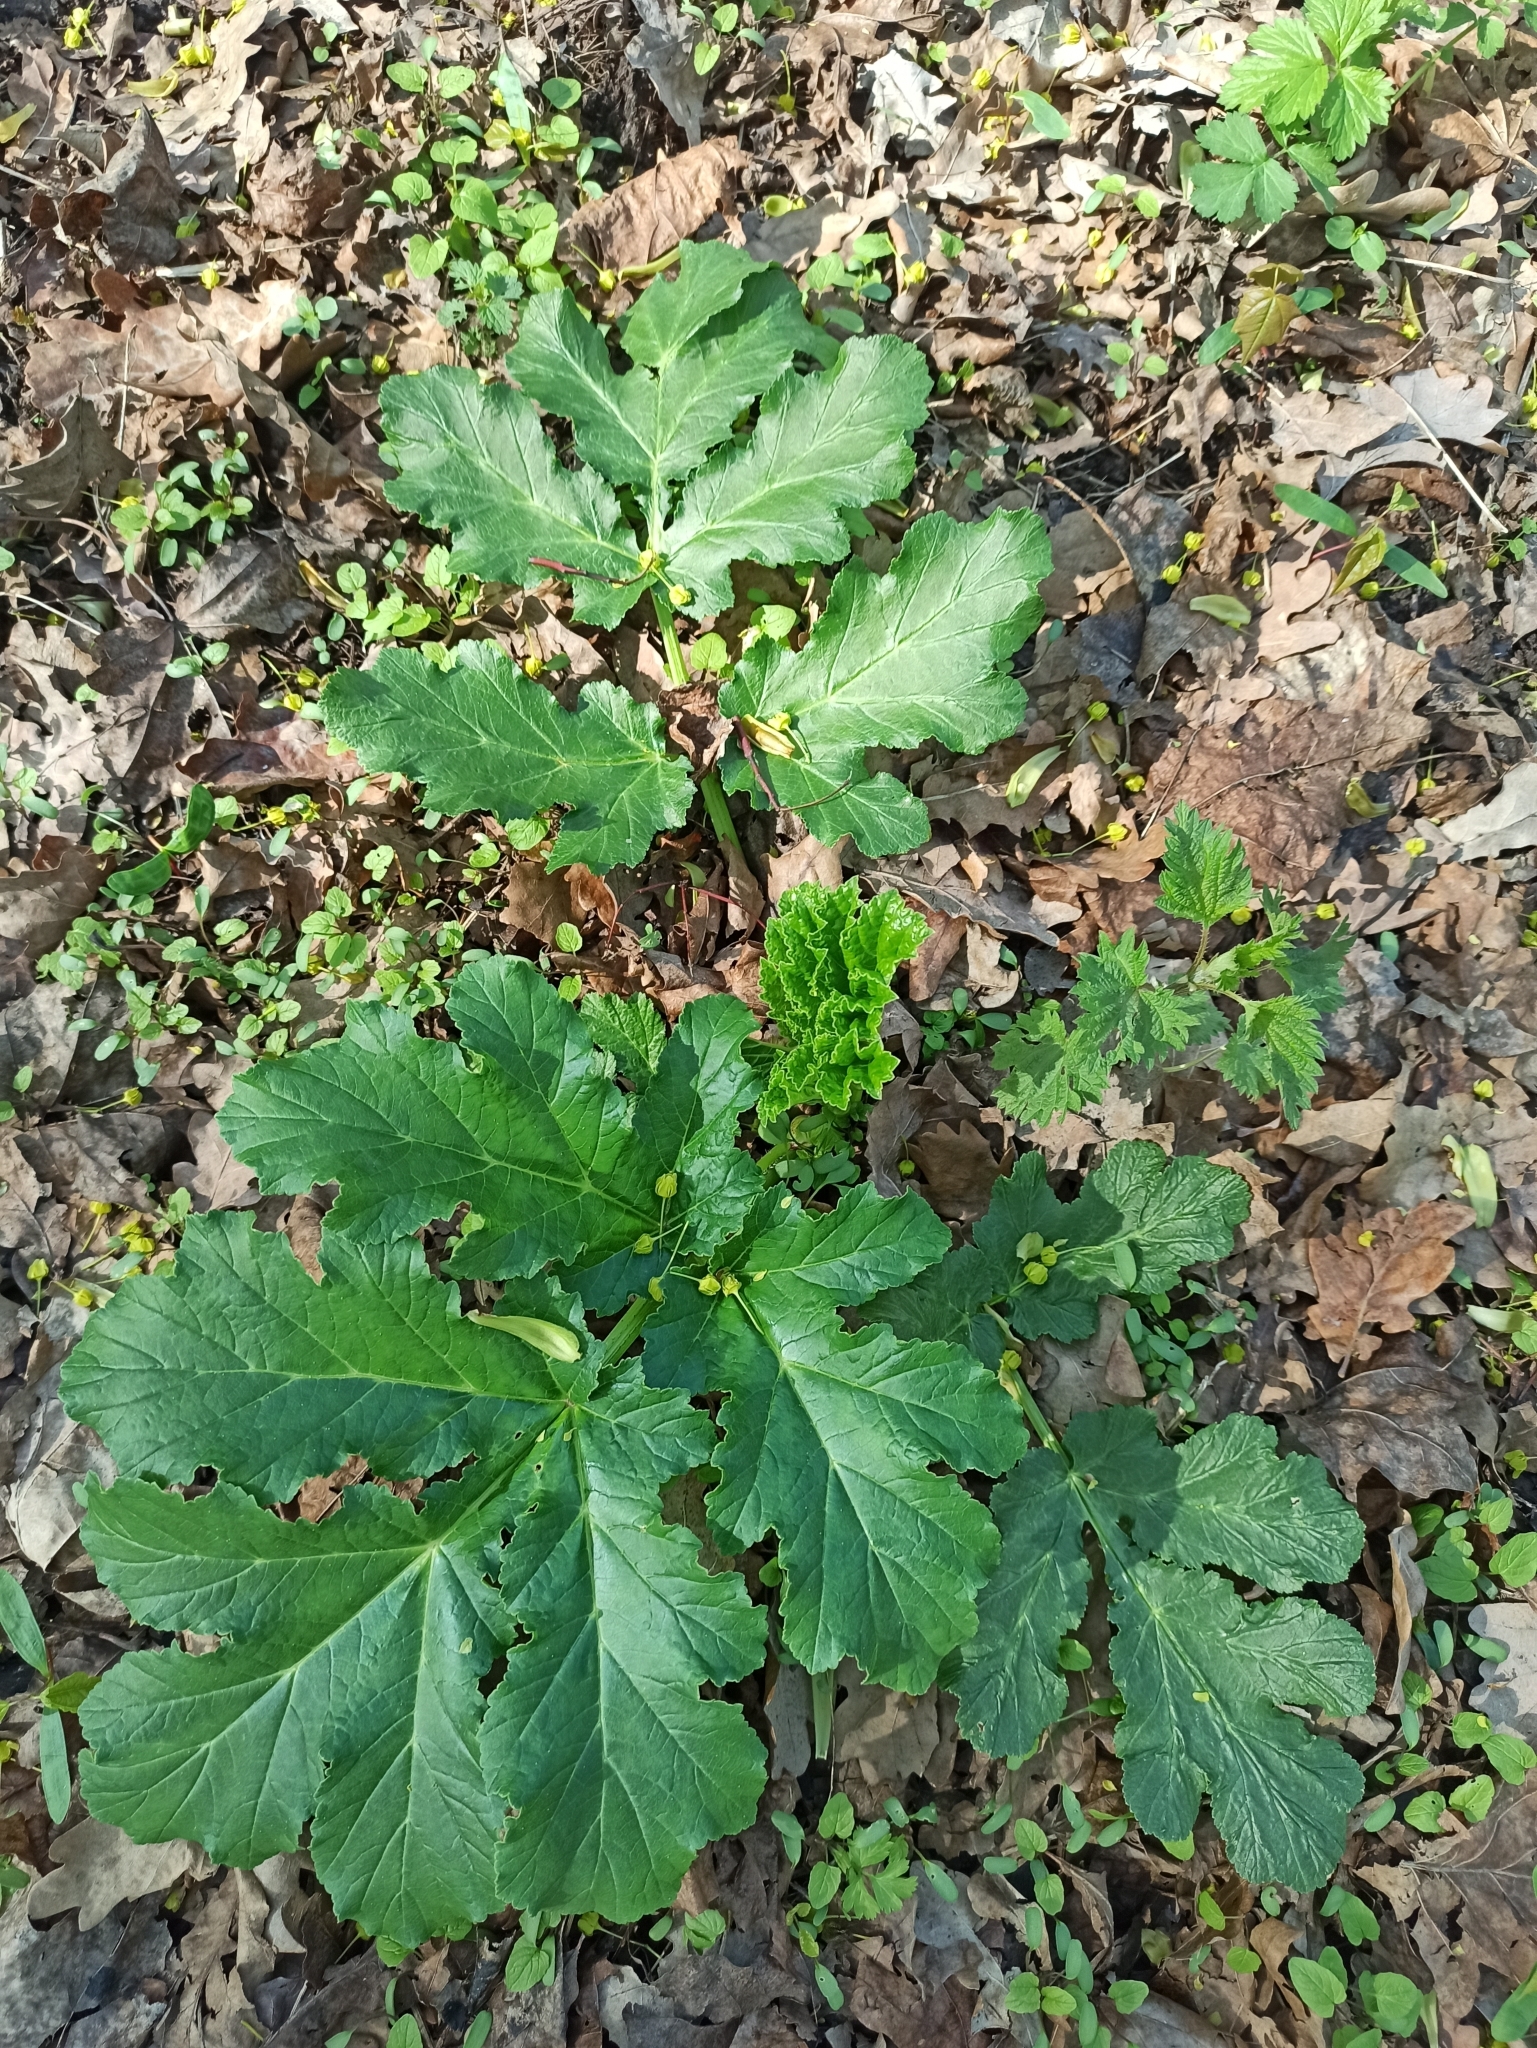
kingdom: Plantae
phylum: Tracheophyta
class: Magnoliopsida
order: Apiales
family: Apiaceae
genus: Heracleum
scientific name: Heracleum sosnowskyi
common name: Sosnowsky's hogweed
